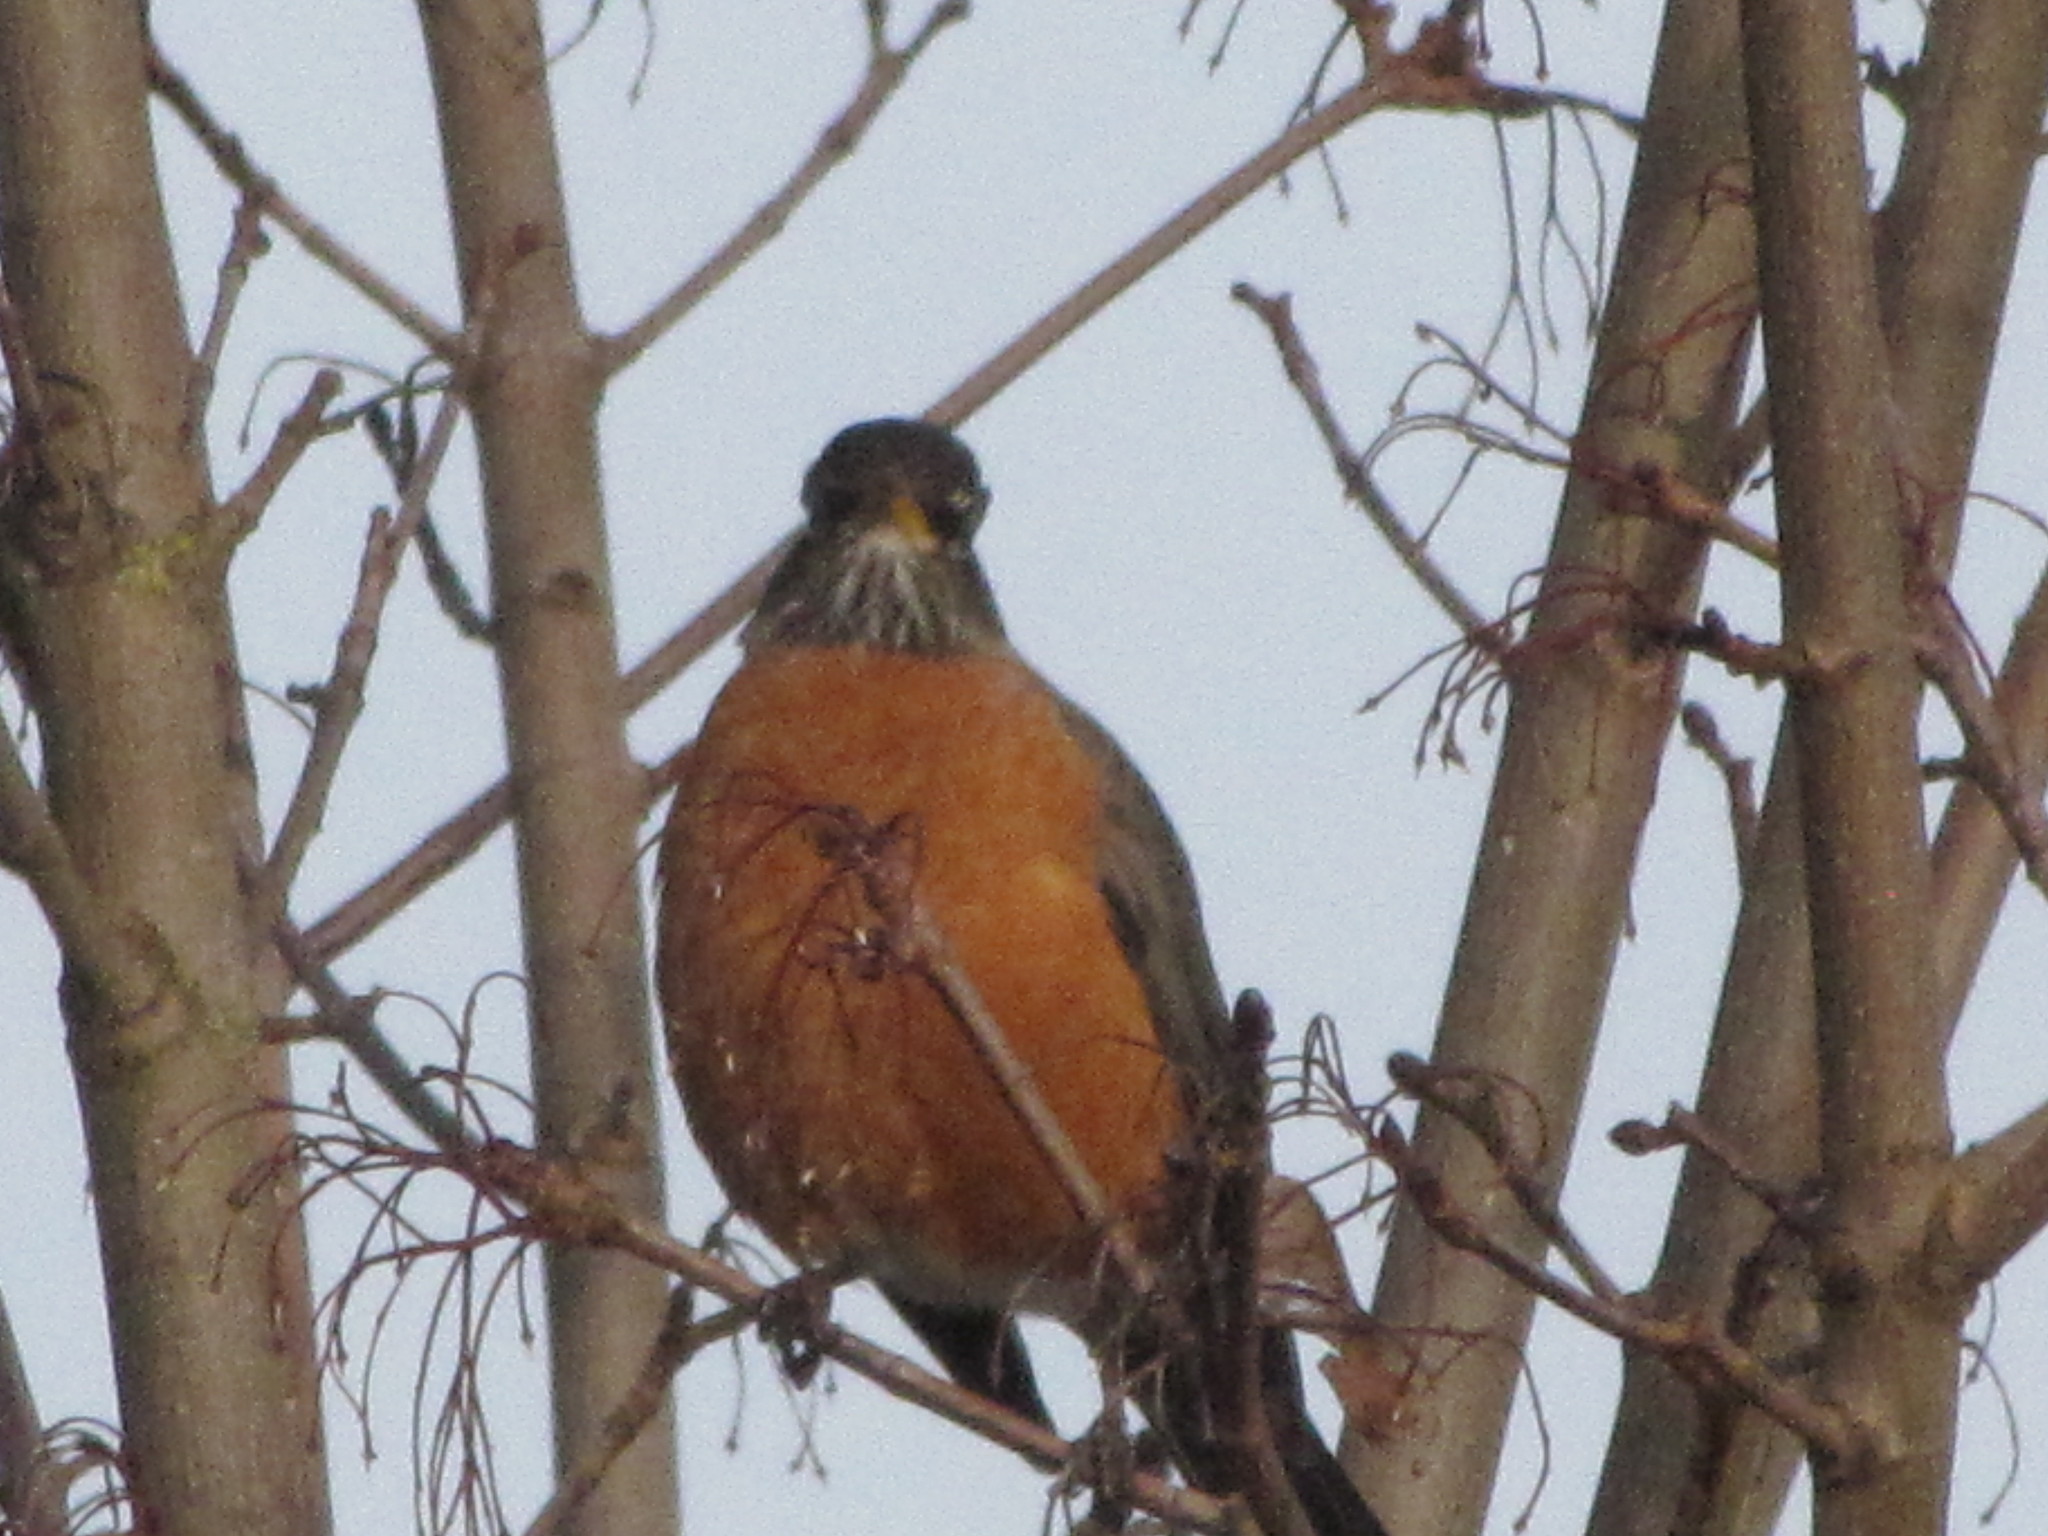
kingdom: Animalia
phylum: Chordata
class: Aves
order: Passeriformes
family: Turdidae
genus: Turdus
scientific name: Turdus migratorius
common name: American robin
